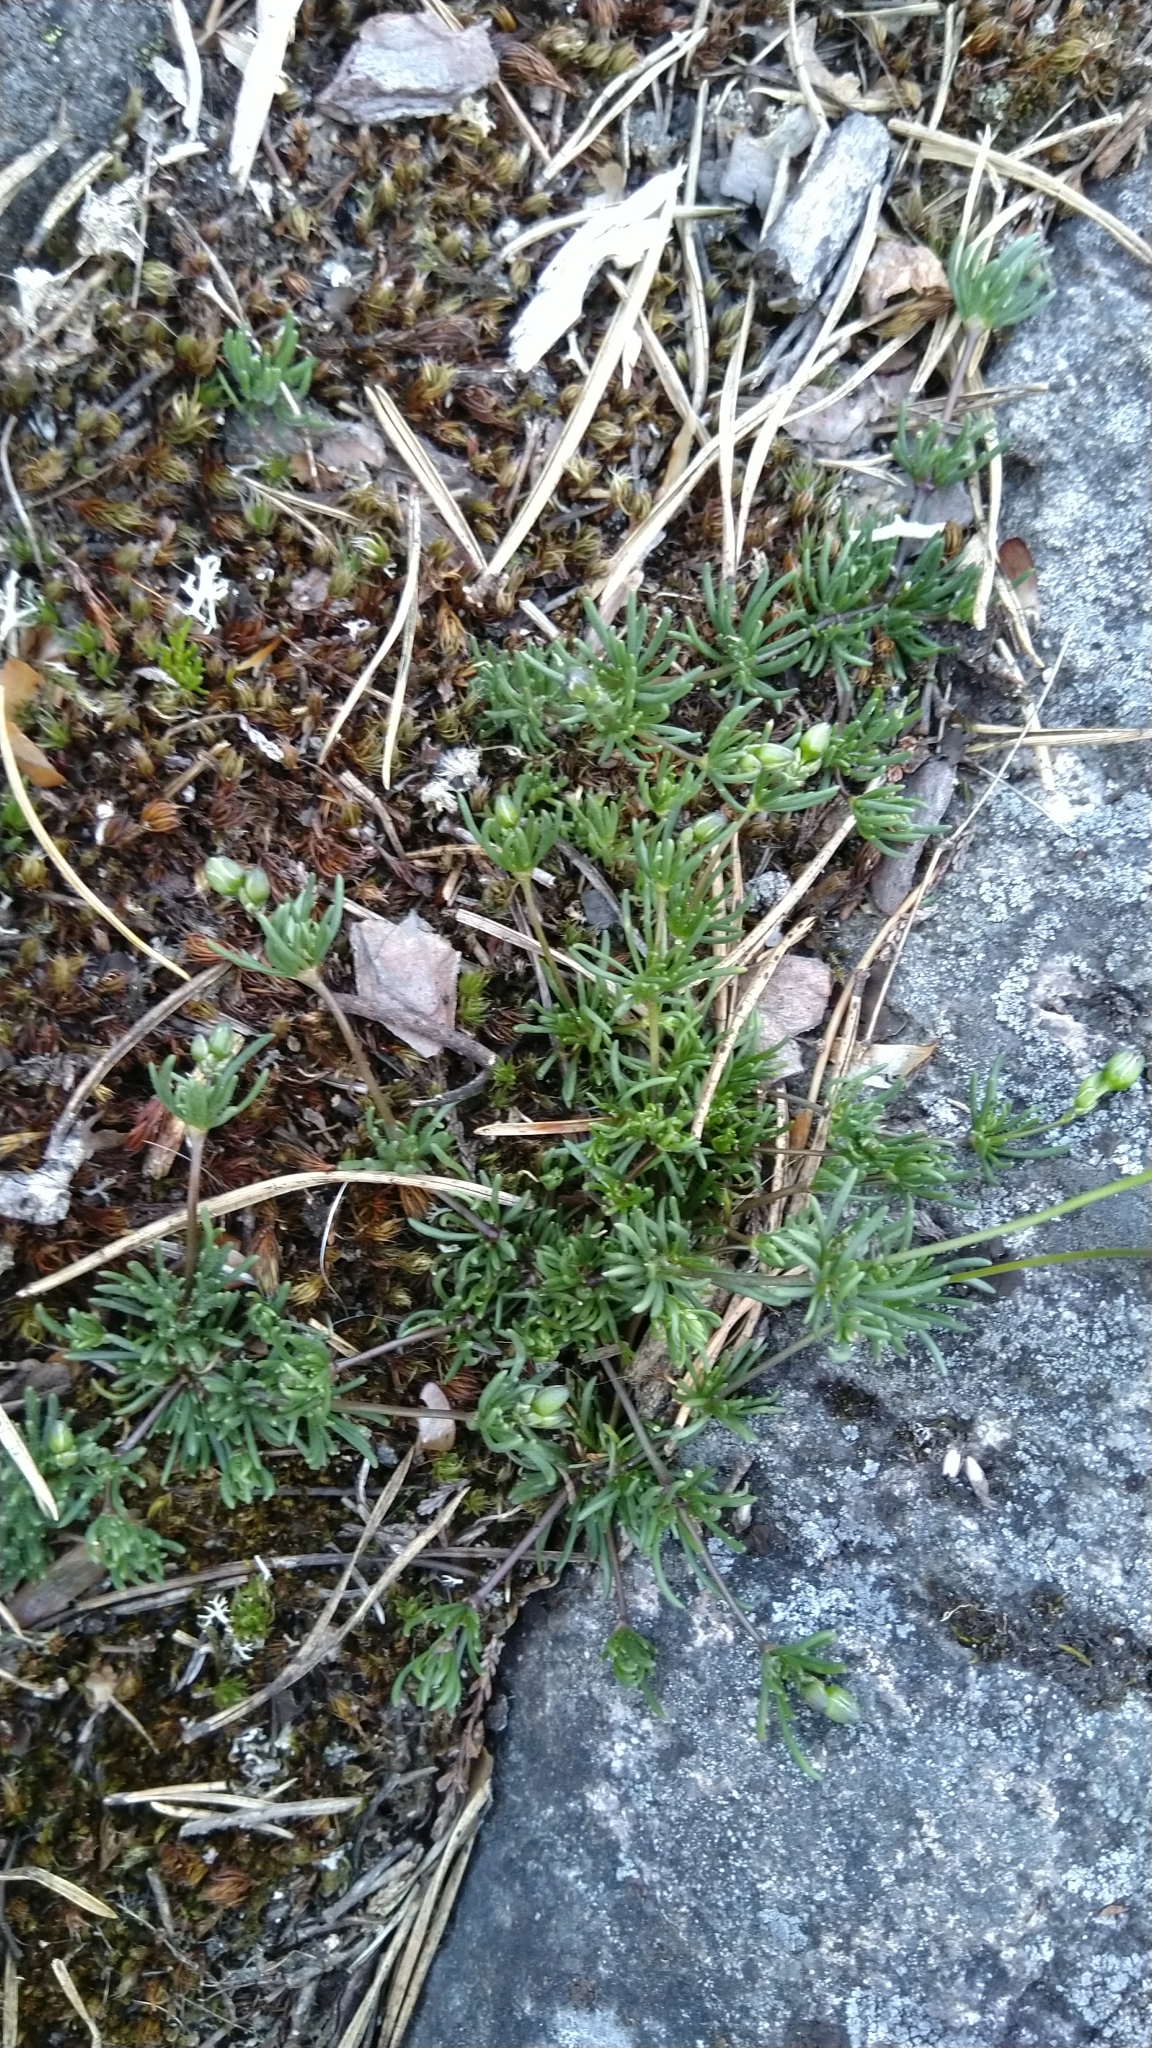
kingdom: Plantae
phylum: Tracheophyta
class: Magnoliopsida
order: Caryophyllales
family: Caryophyllaceae
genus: Spergula
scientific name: Spergula morisonii
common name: Pearlwort spurrey
